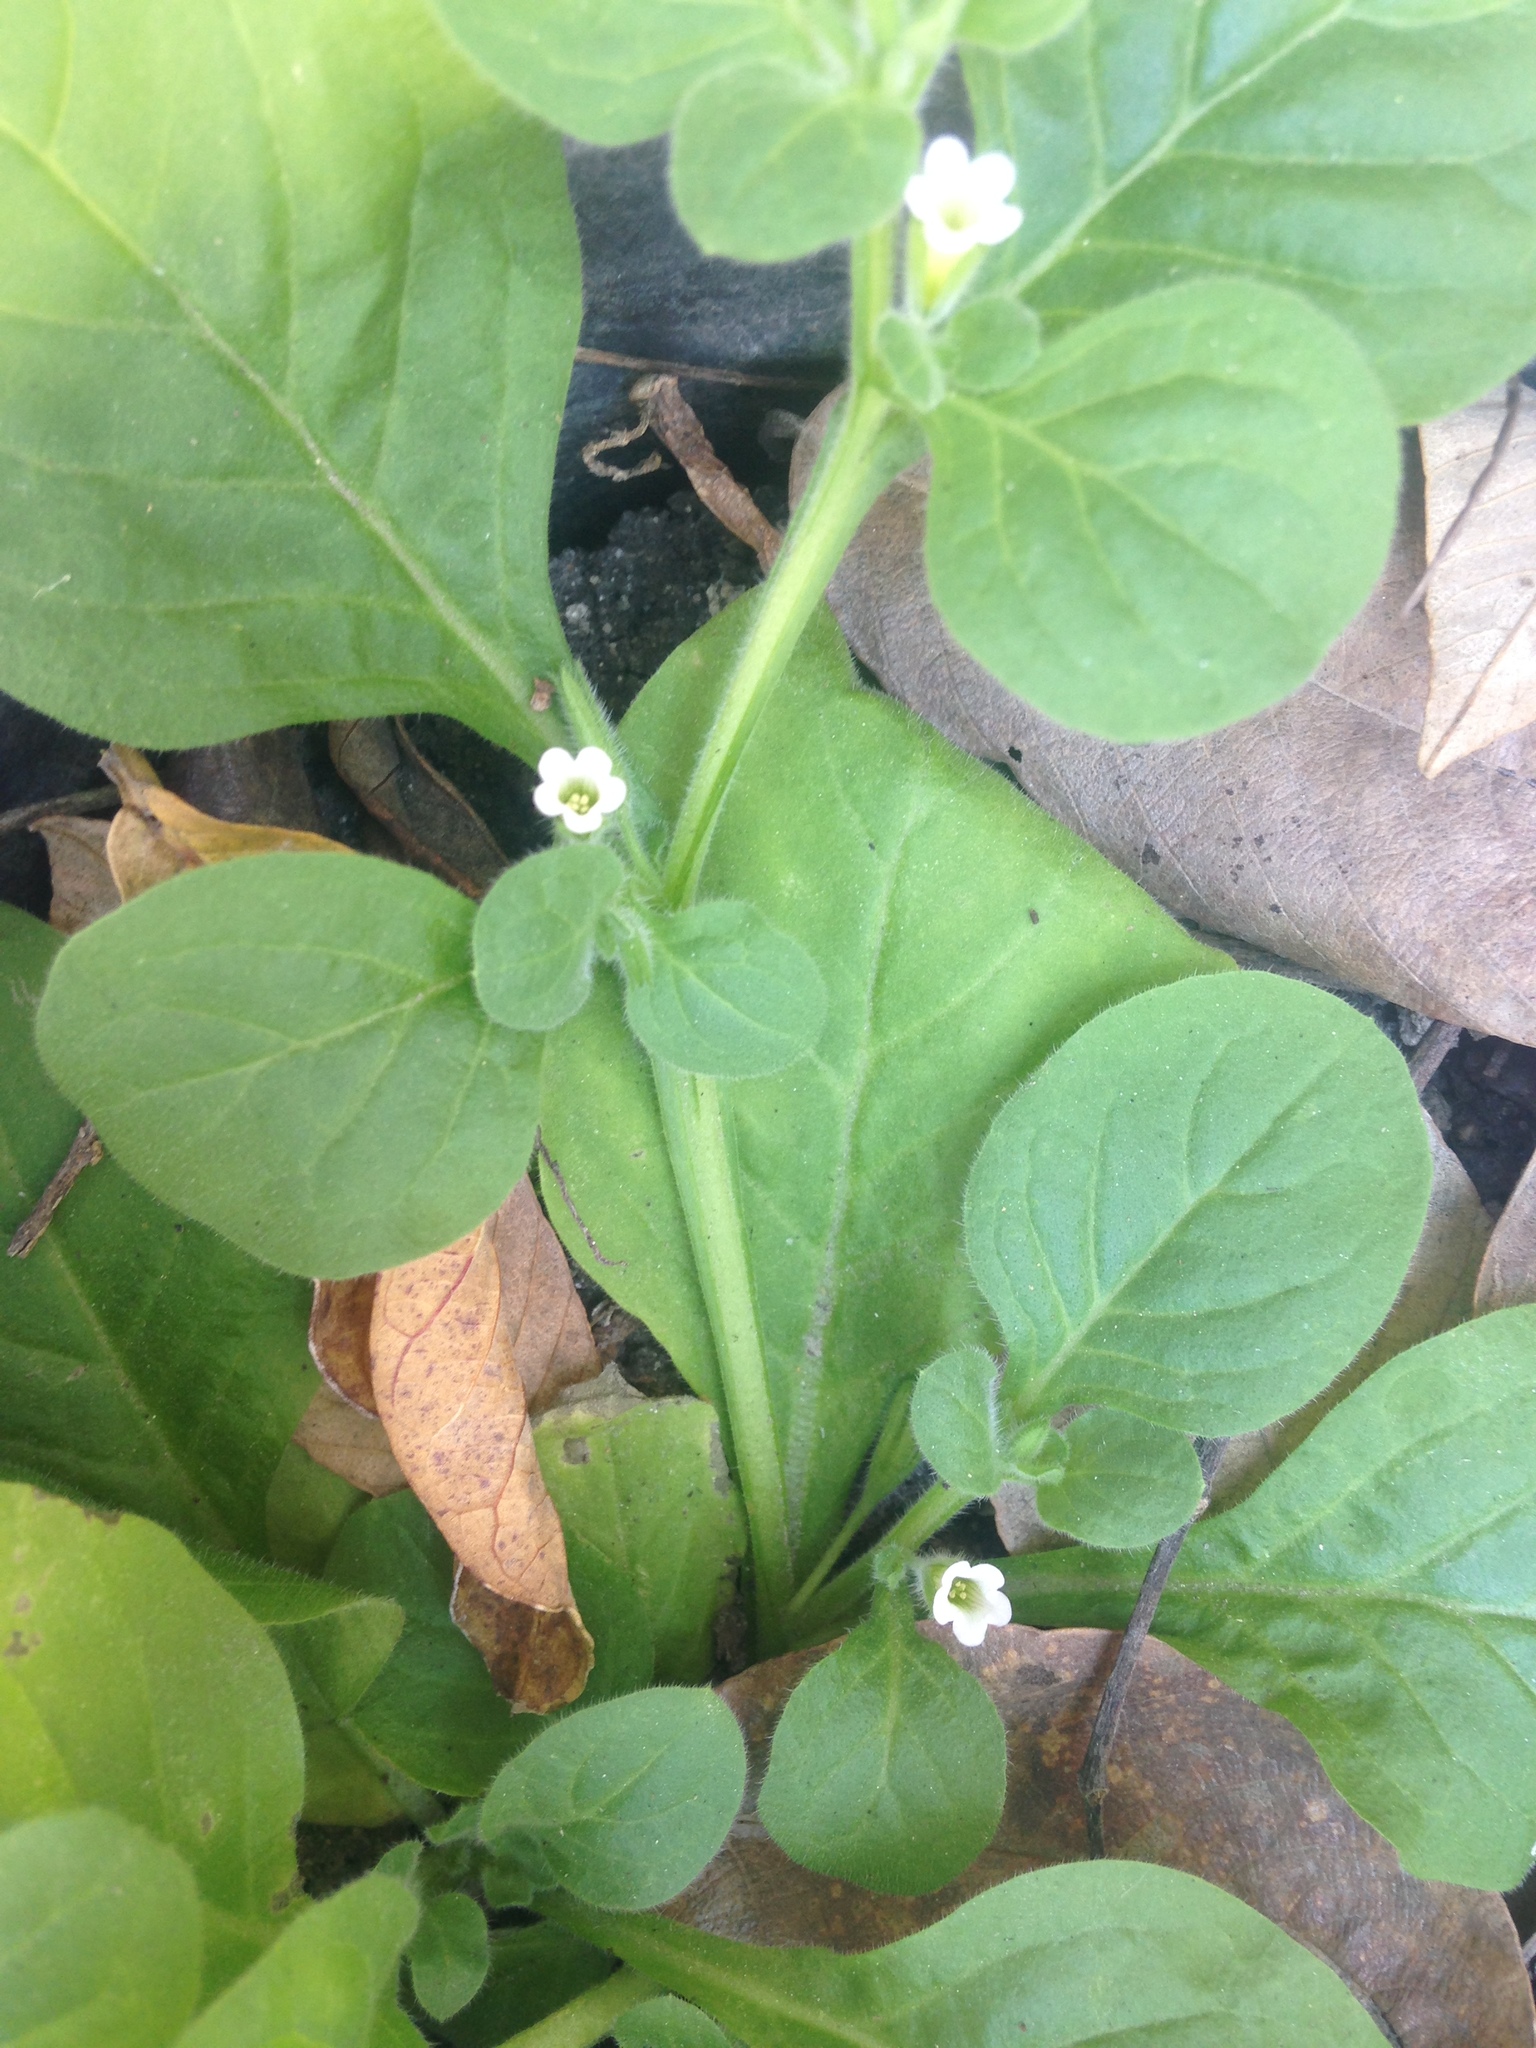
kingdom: Plantae
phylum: Tracheophyta
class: Magnoliopsida
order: Boraginales
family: Namaceae
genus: Nama
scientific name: Nama jamaicensis
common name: Jamaicanweed
